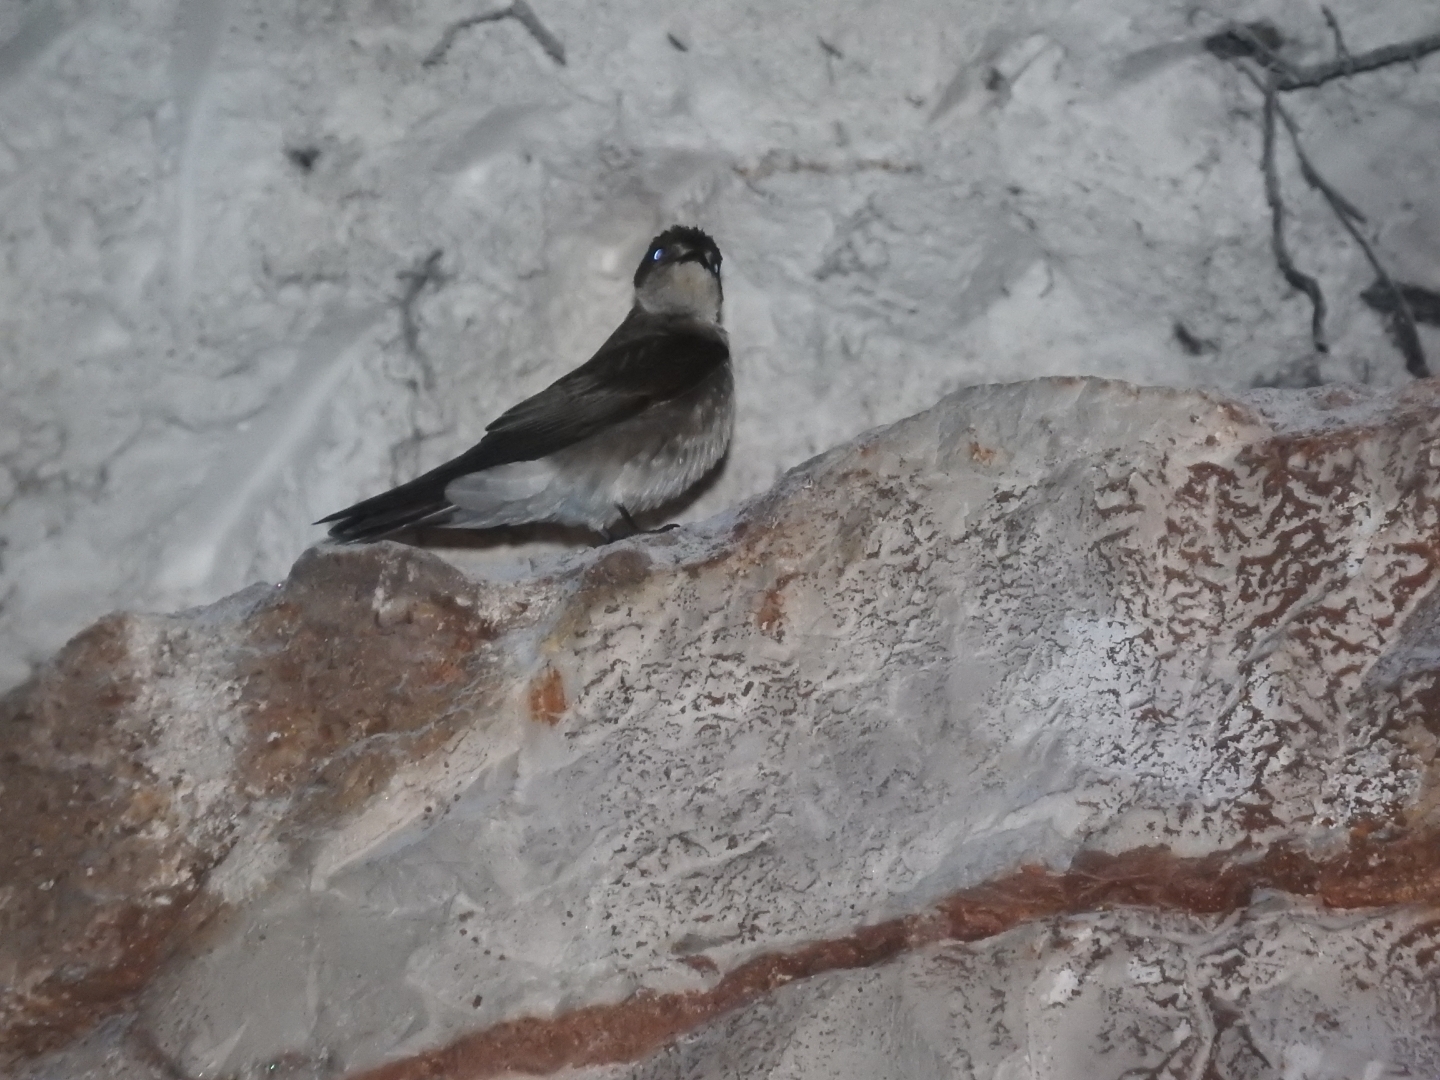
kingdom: Animalia
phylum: Chordata
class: Aves
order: Passeriformes
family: Hirundinidae
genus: Progne
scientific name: Progne chalybea
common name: Grey-breasted martin
